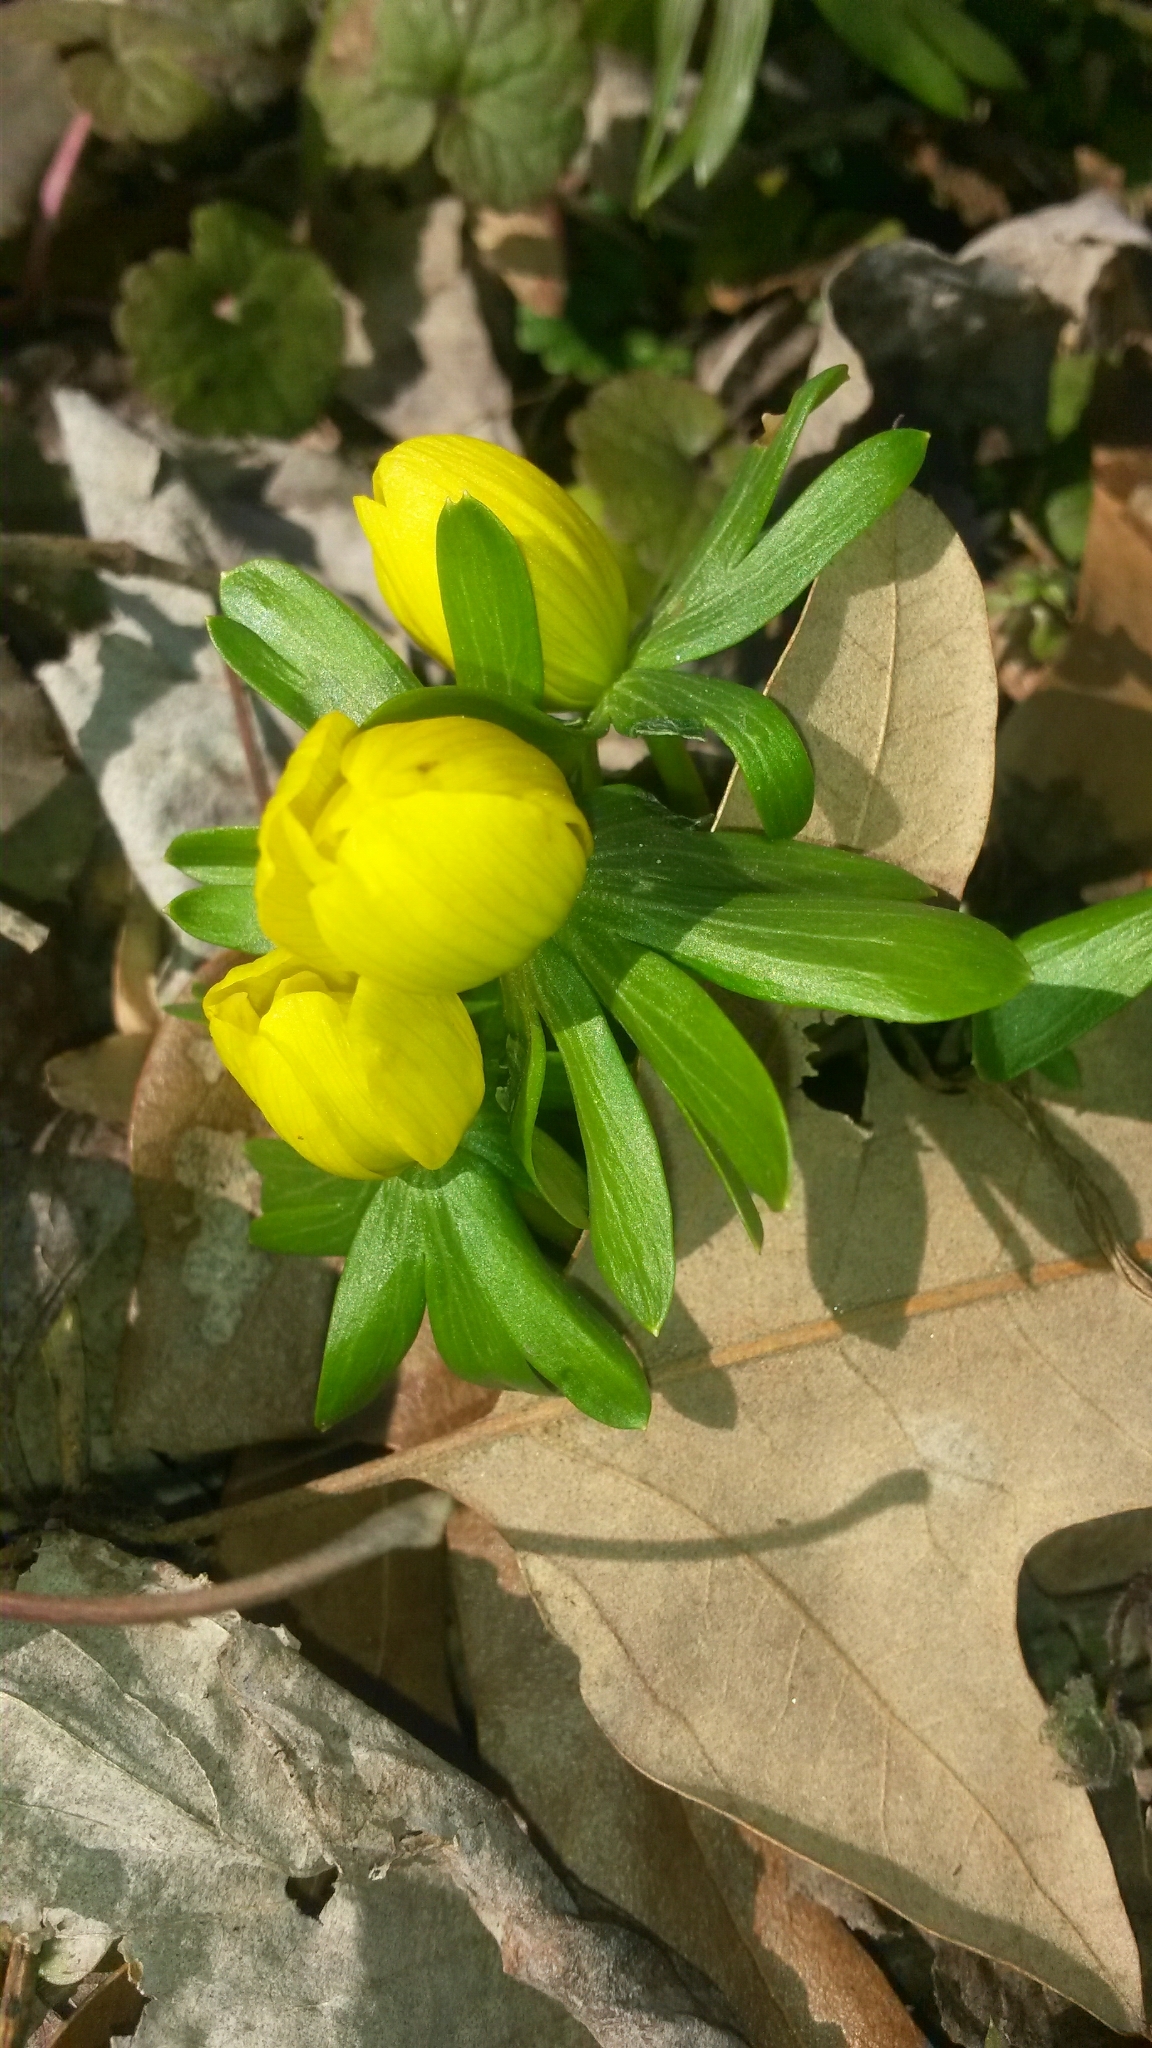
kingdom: Plantae
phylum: Tracheophyta
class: Magnoliopsida
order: Ranunculales
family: Ranunculaceae
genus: Eranthis
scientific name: Eranthis hyemalis
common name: Winter aconite
